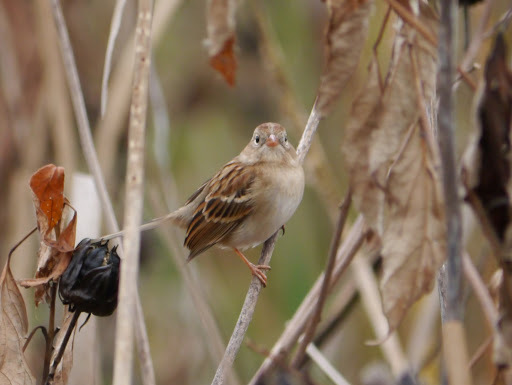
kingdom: Animalia
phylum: Chordata
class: Aves
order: Passeriformes
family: Passerellidae
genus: Spizella
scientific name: Spizella pusilla
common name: Field sparrow
